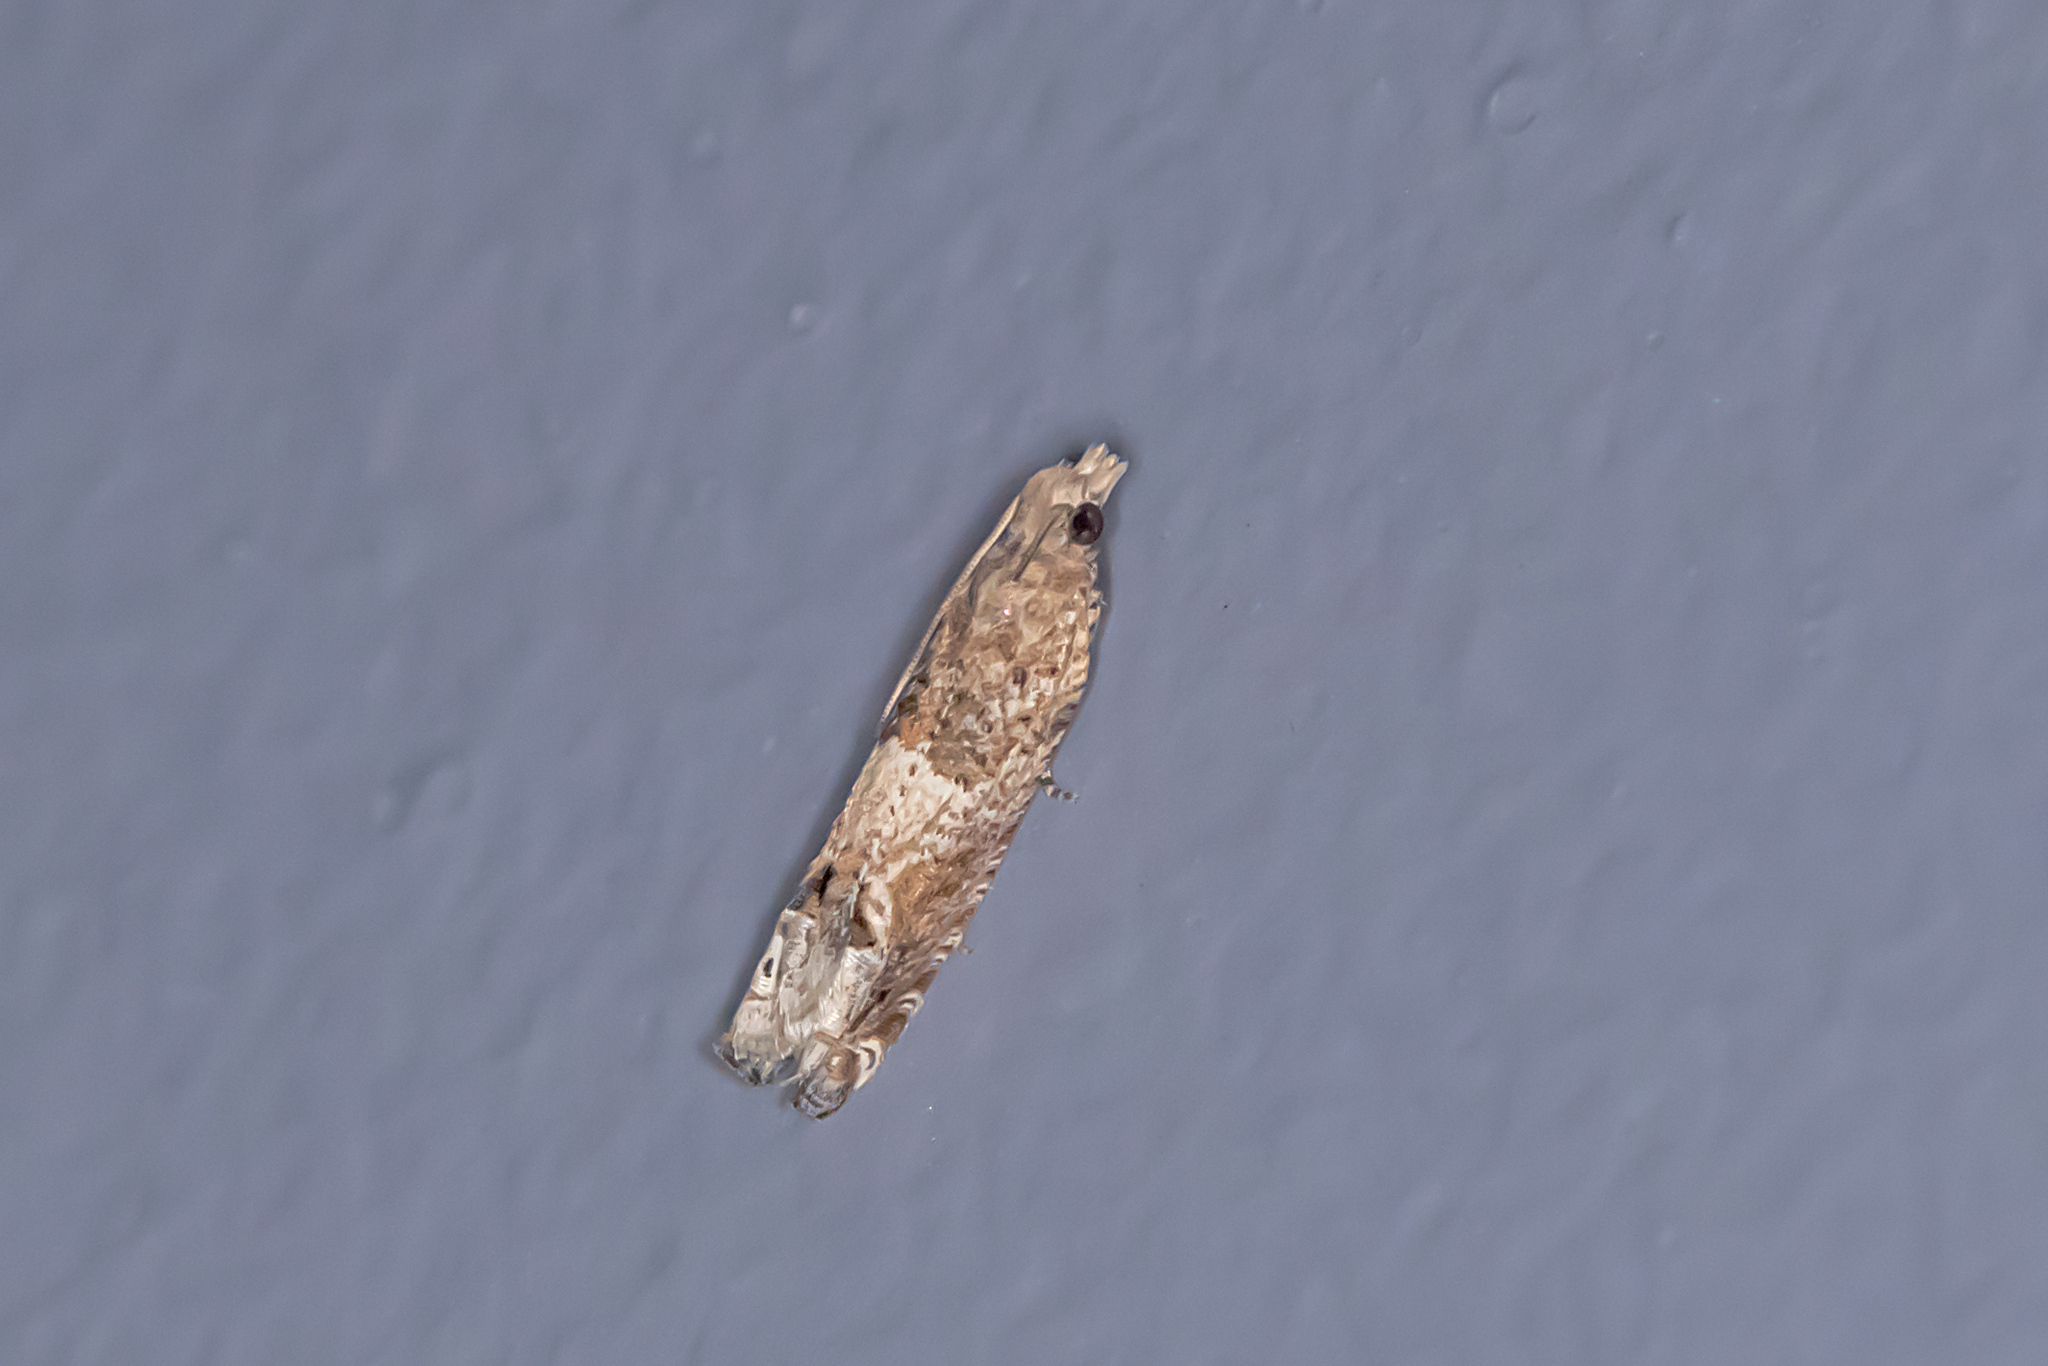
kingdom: Animalia
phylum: Arthropoda
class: Insecta
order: Lepidoptera
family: Tortricidae
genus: Crocidosema
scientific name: Crocidosema plebejana
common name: Southern bell
